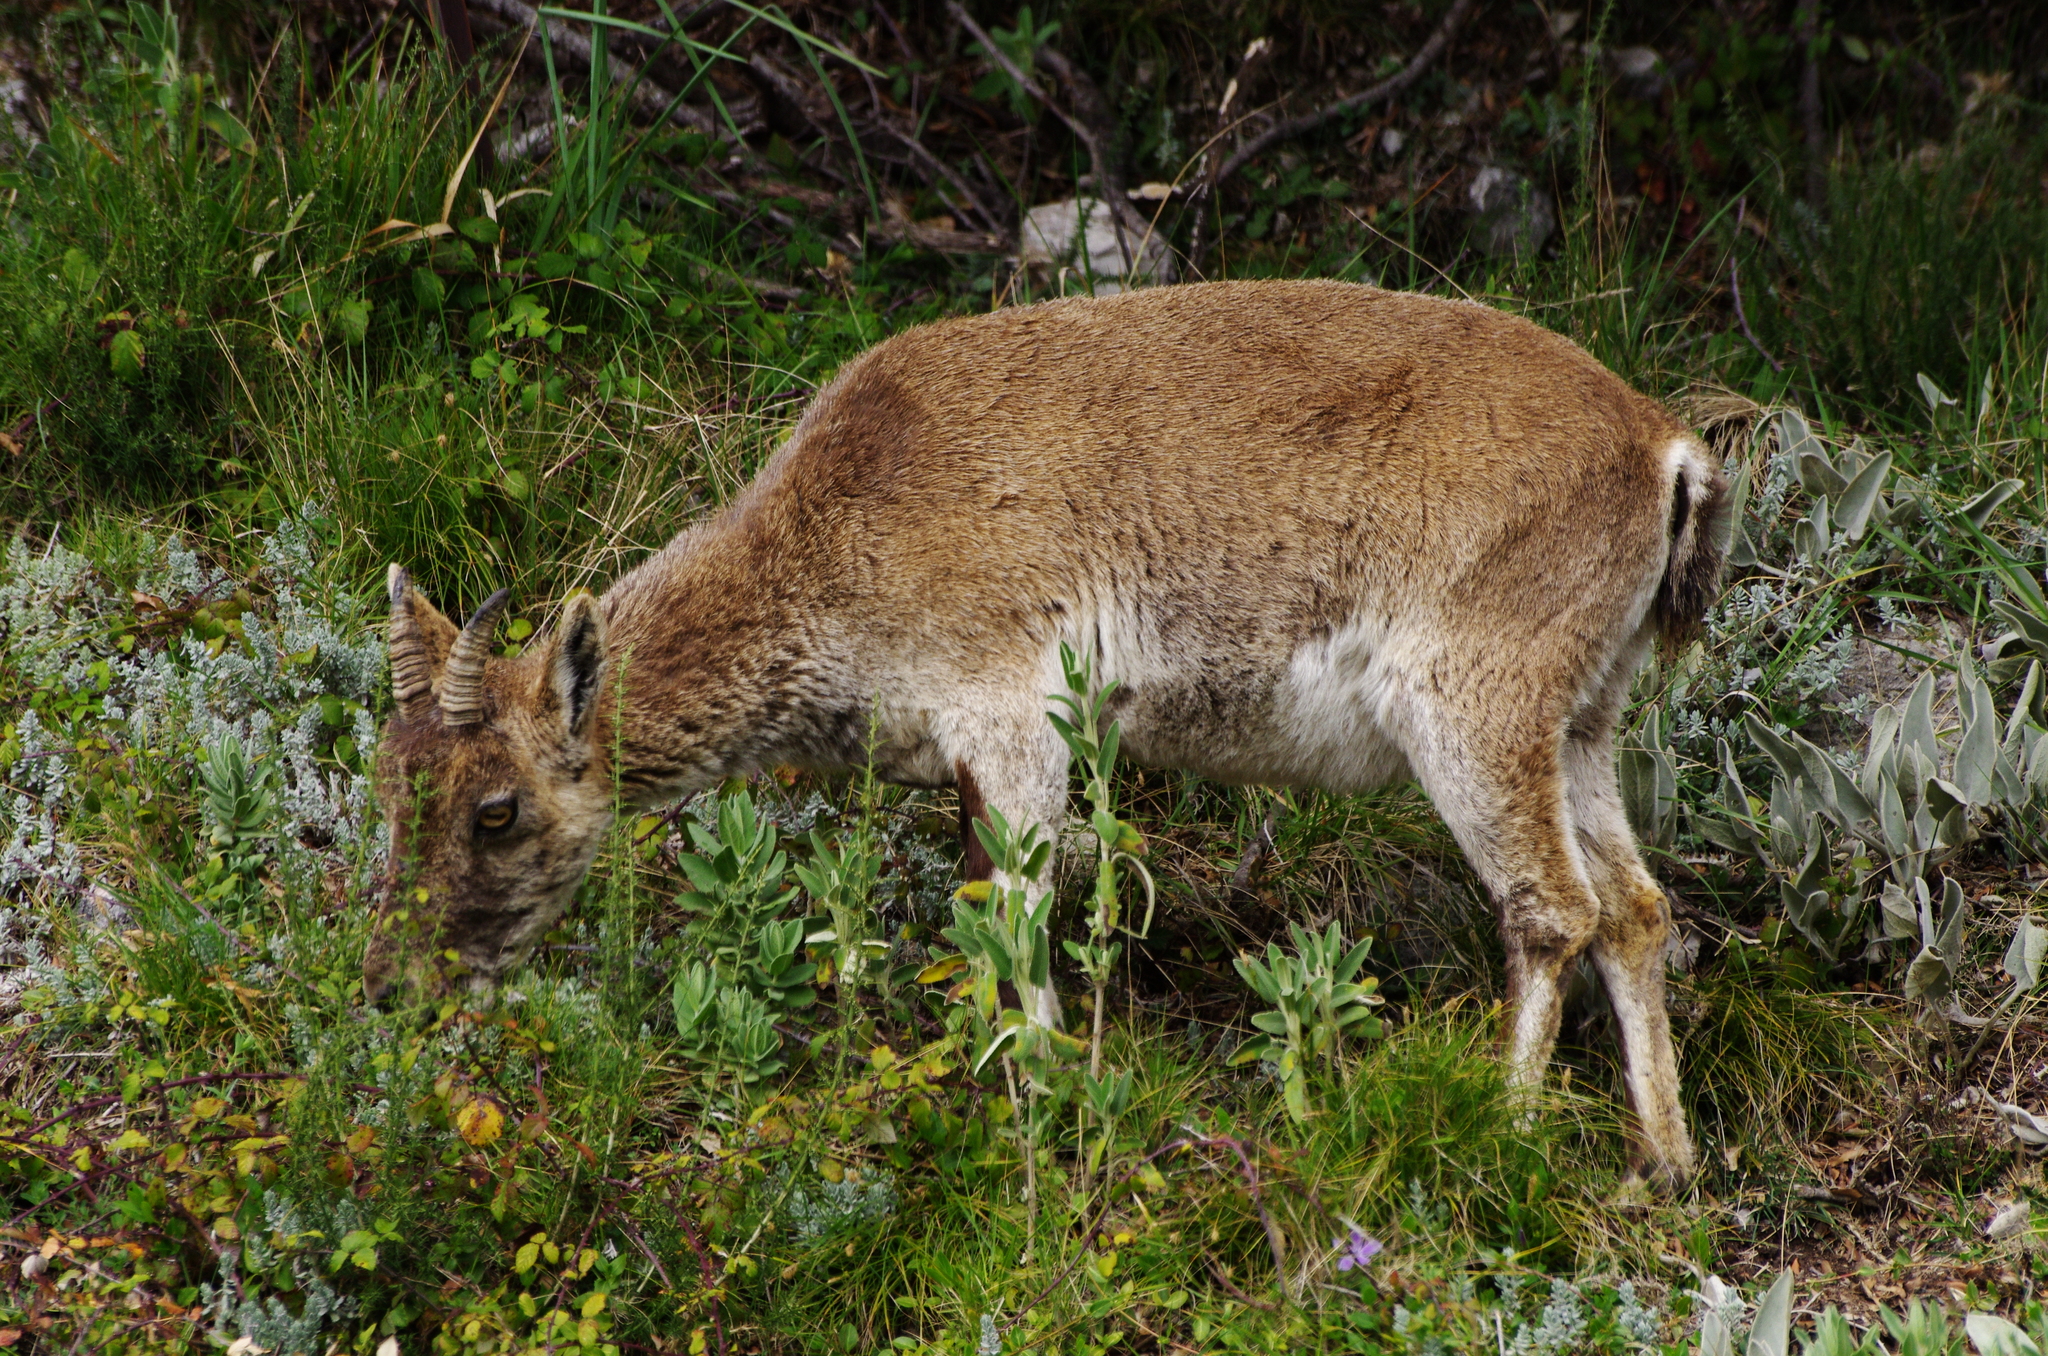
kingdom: Animalia
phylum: Chordata
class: Mammalia
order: Artiodactyla
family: Bovidae
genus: Capra
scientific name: Capra pyrenaica
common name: Spanish ibex
